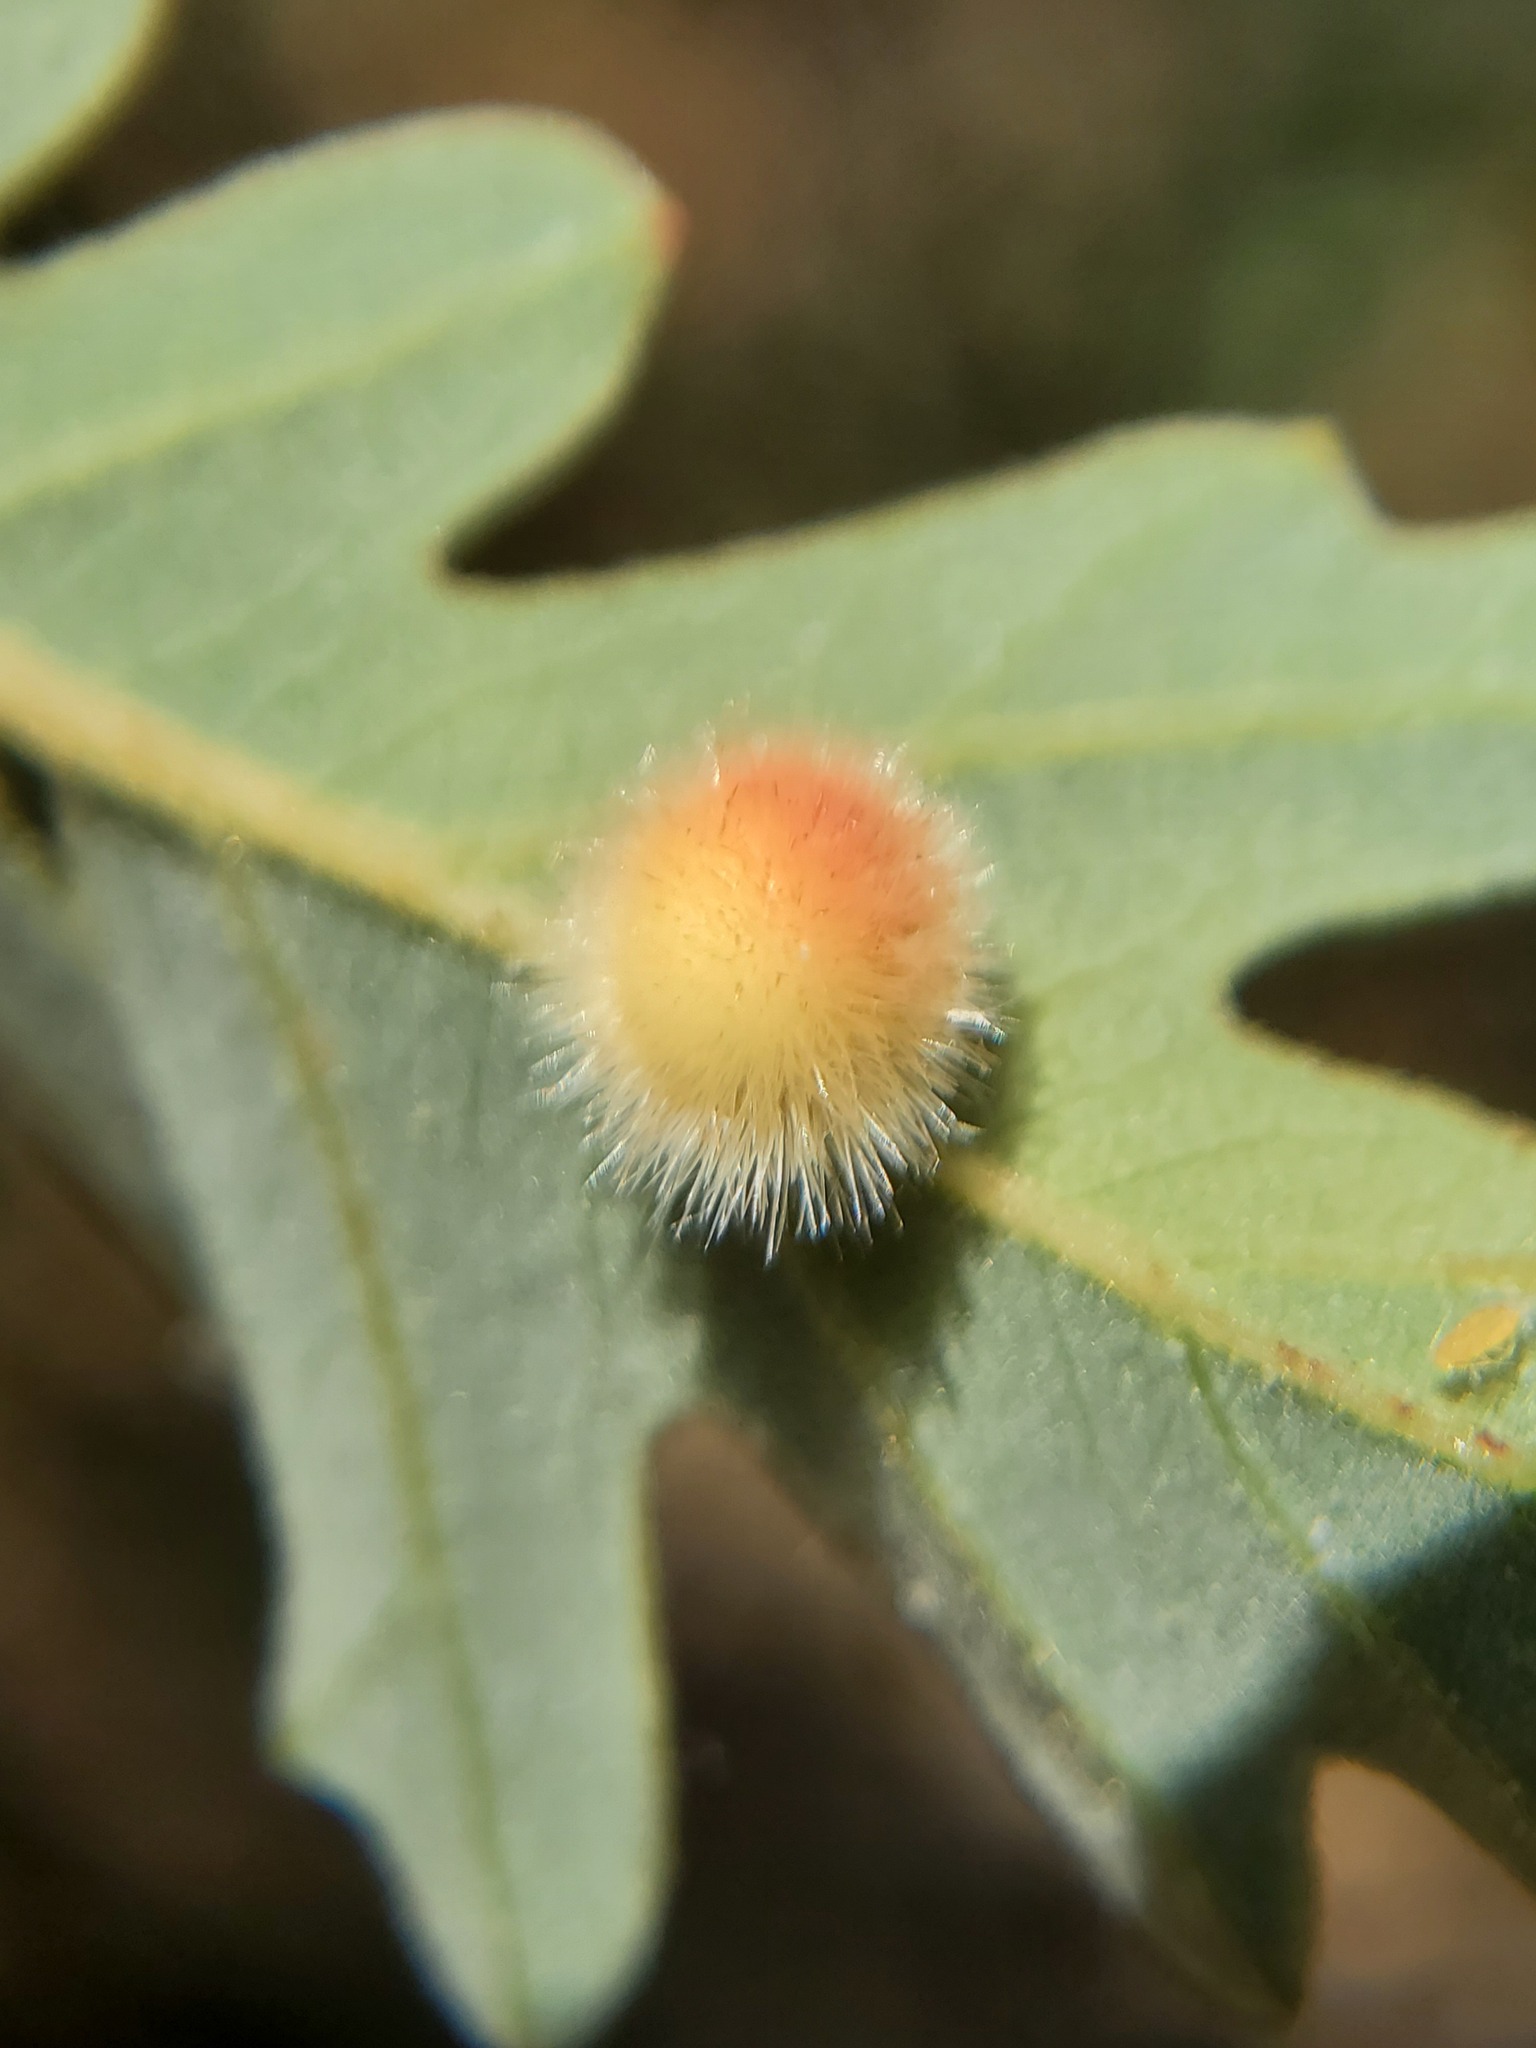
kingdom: Animalia
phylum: Arthropoda
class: Insecta
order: Hymenoptera
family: Cynipidae
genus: Atrusca
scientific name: Atrusca
